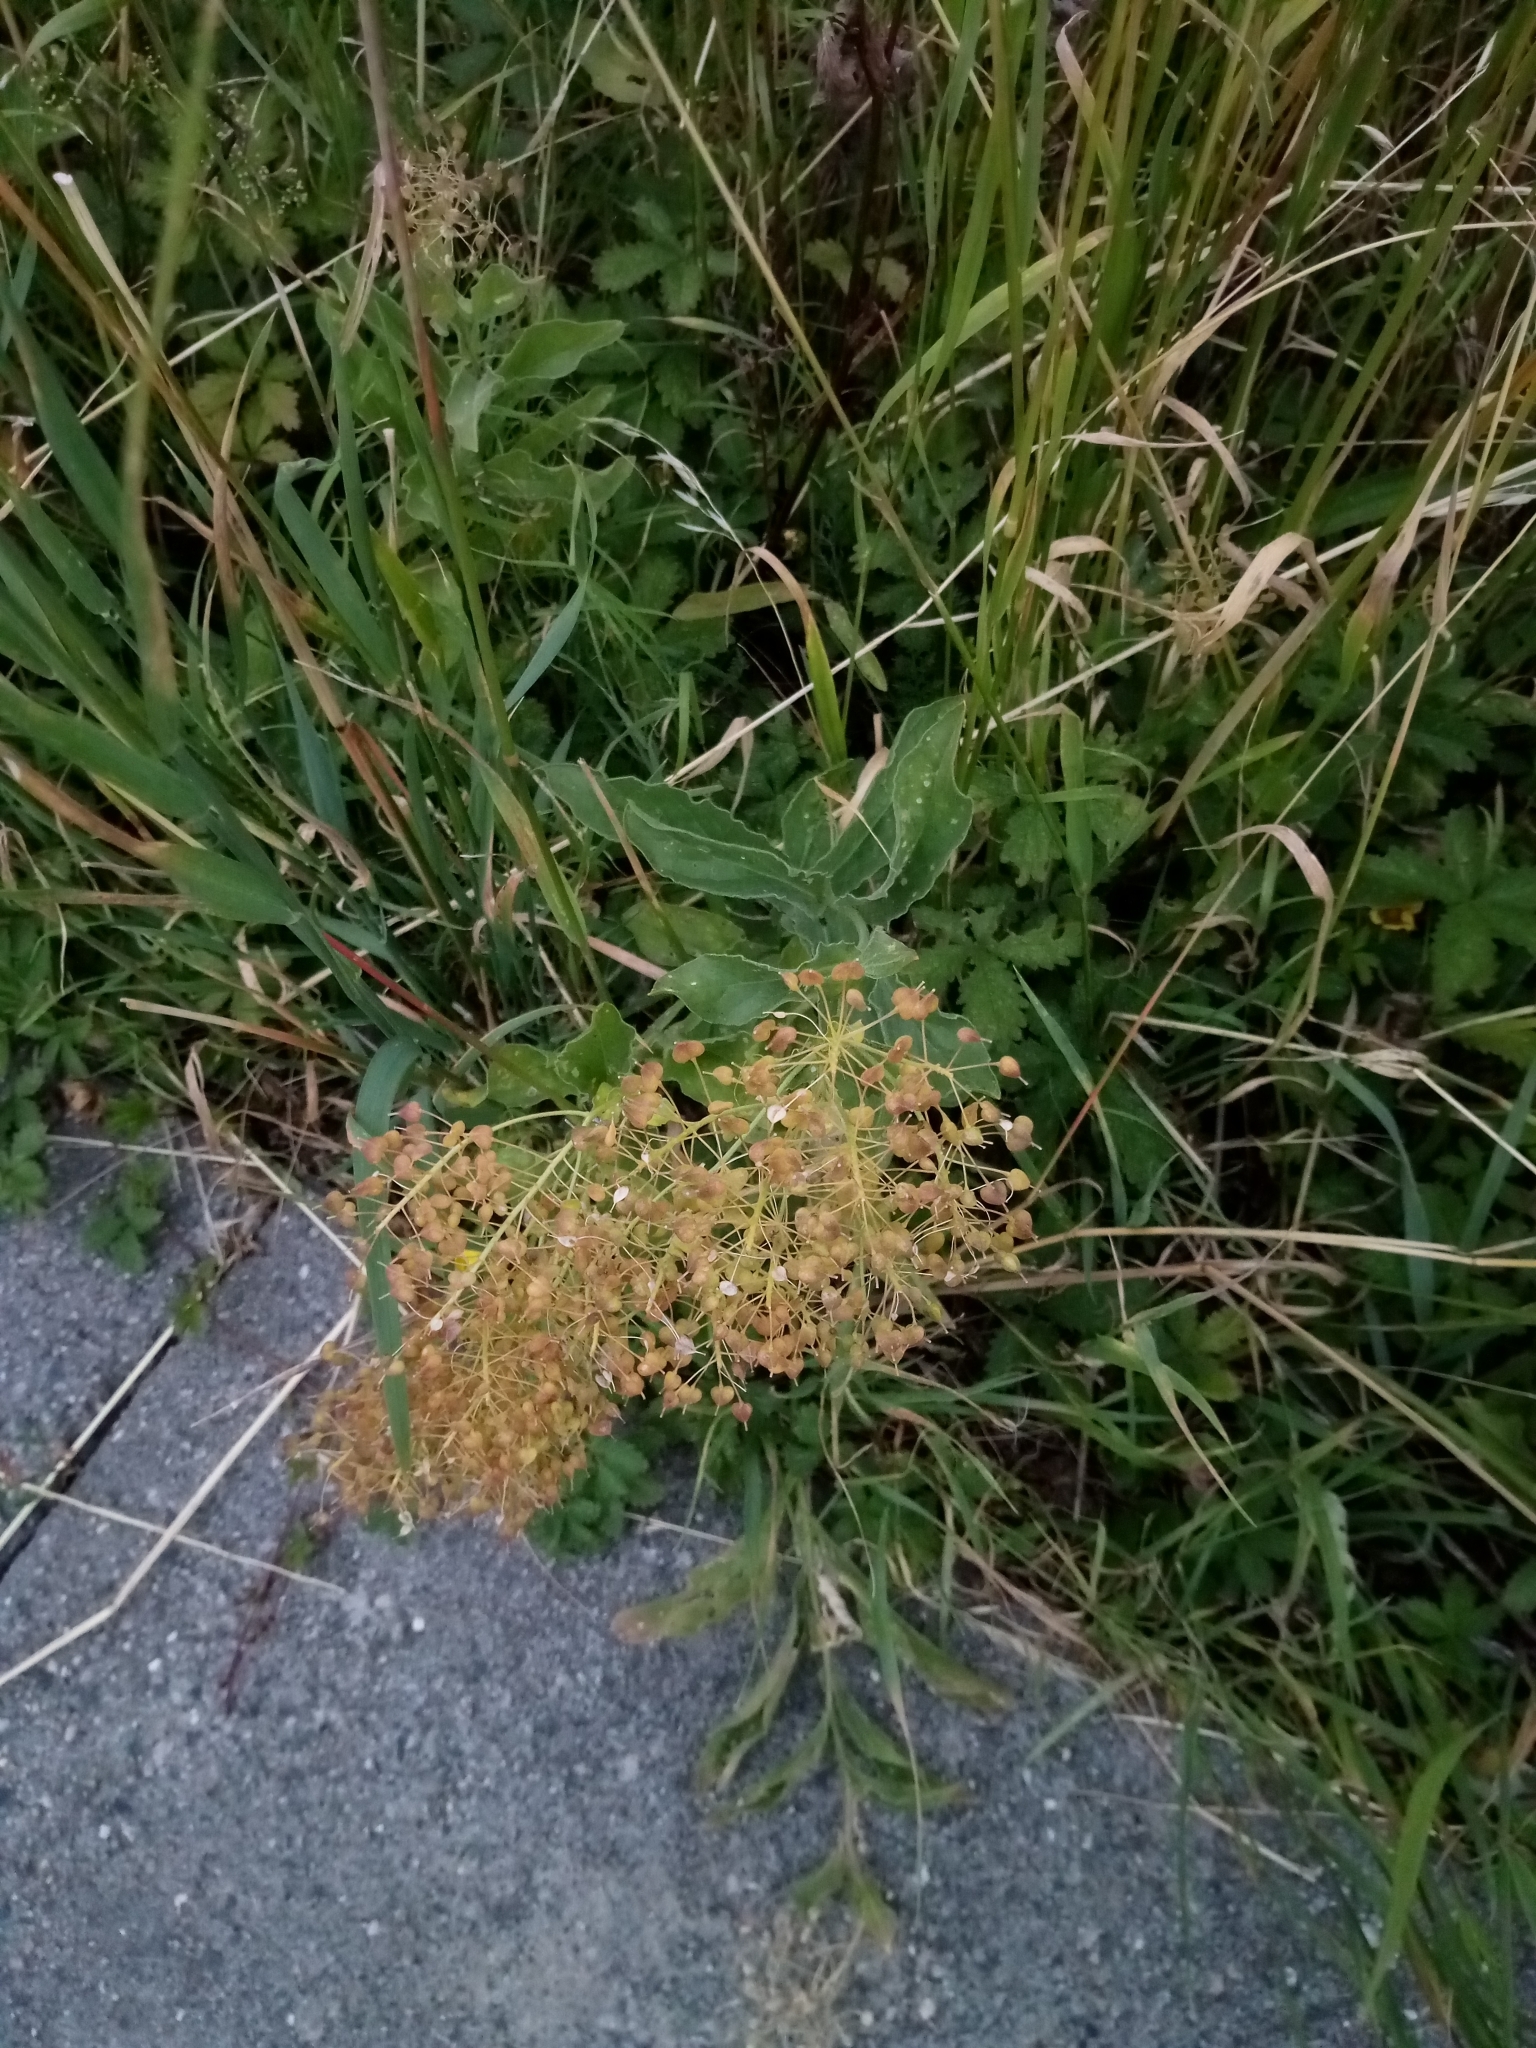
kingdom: Plantae
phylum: Tracheophyta
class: Magnoliopsida
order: Brassicales
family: Brassicaceae
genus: Lepidium
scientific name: Lepidium draba
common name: Hoary cress
